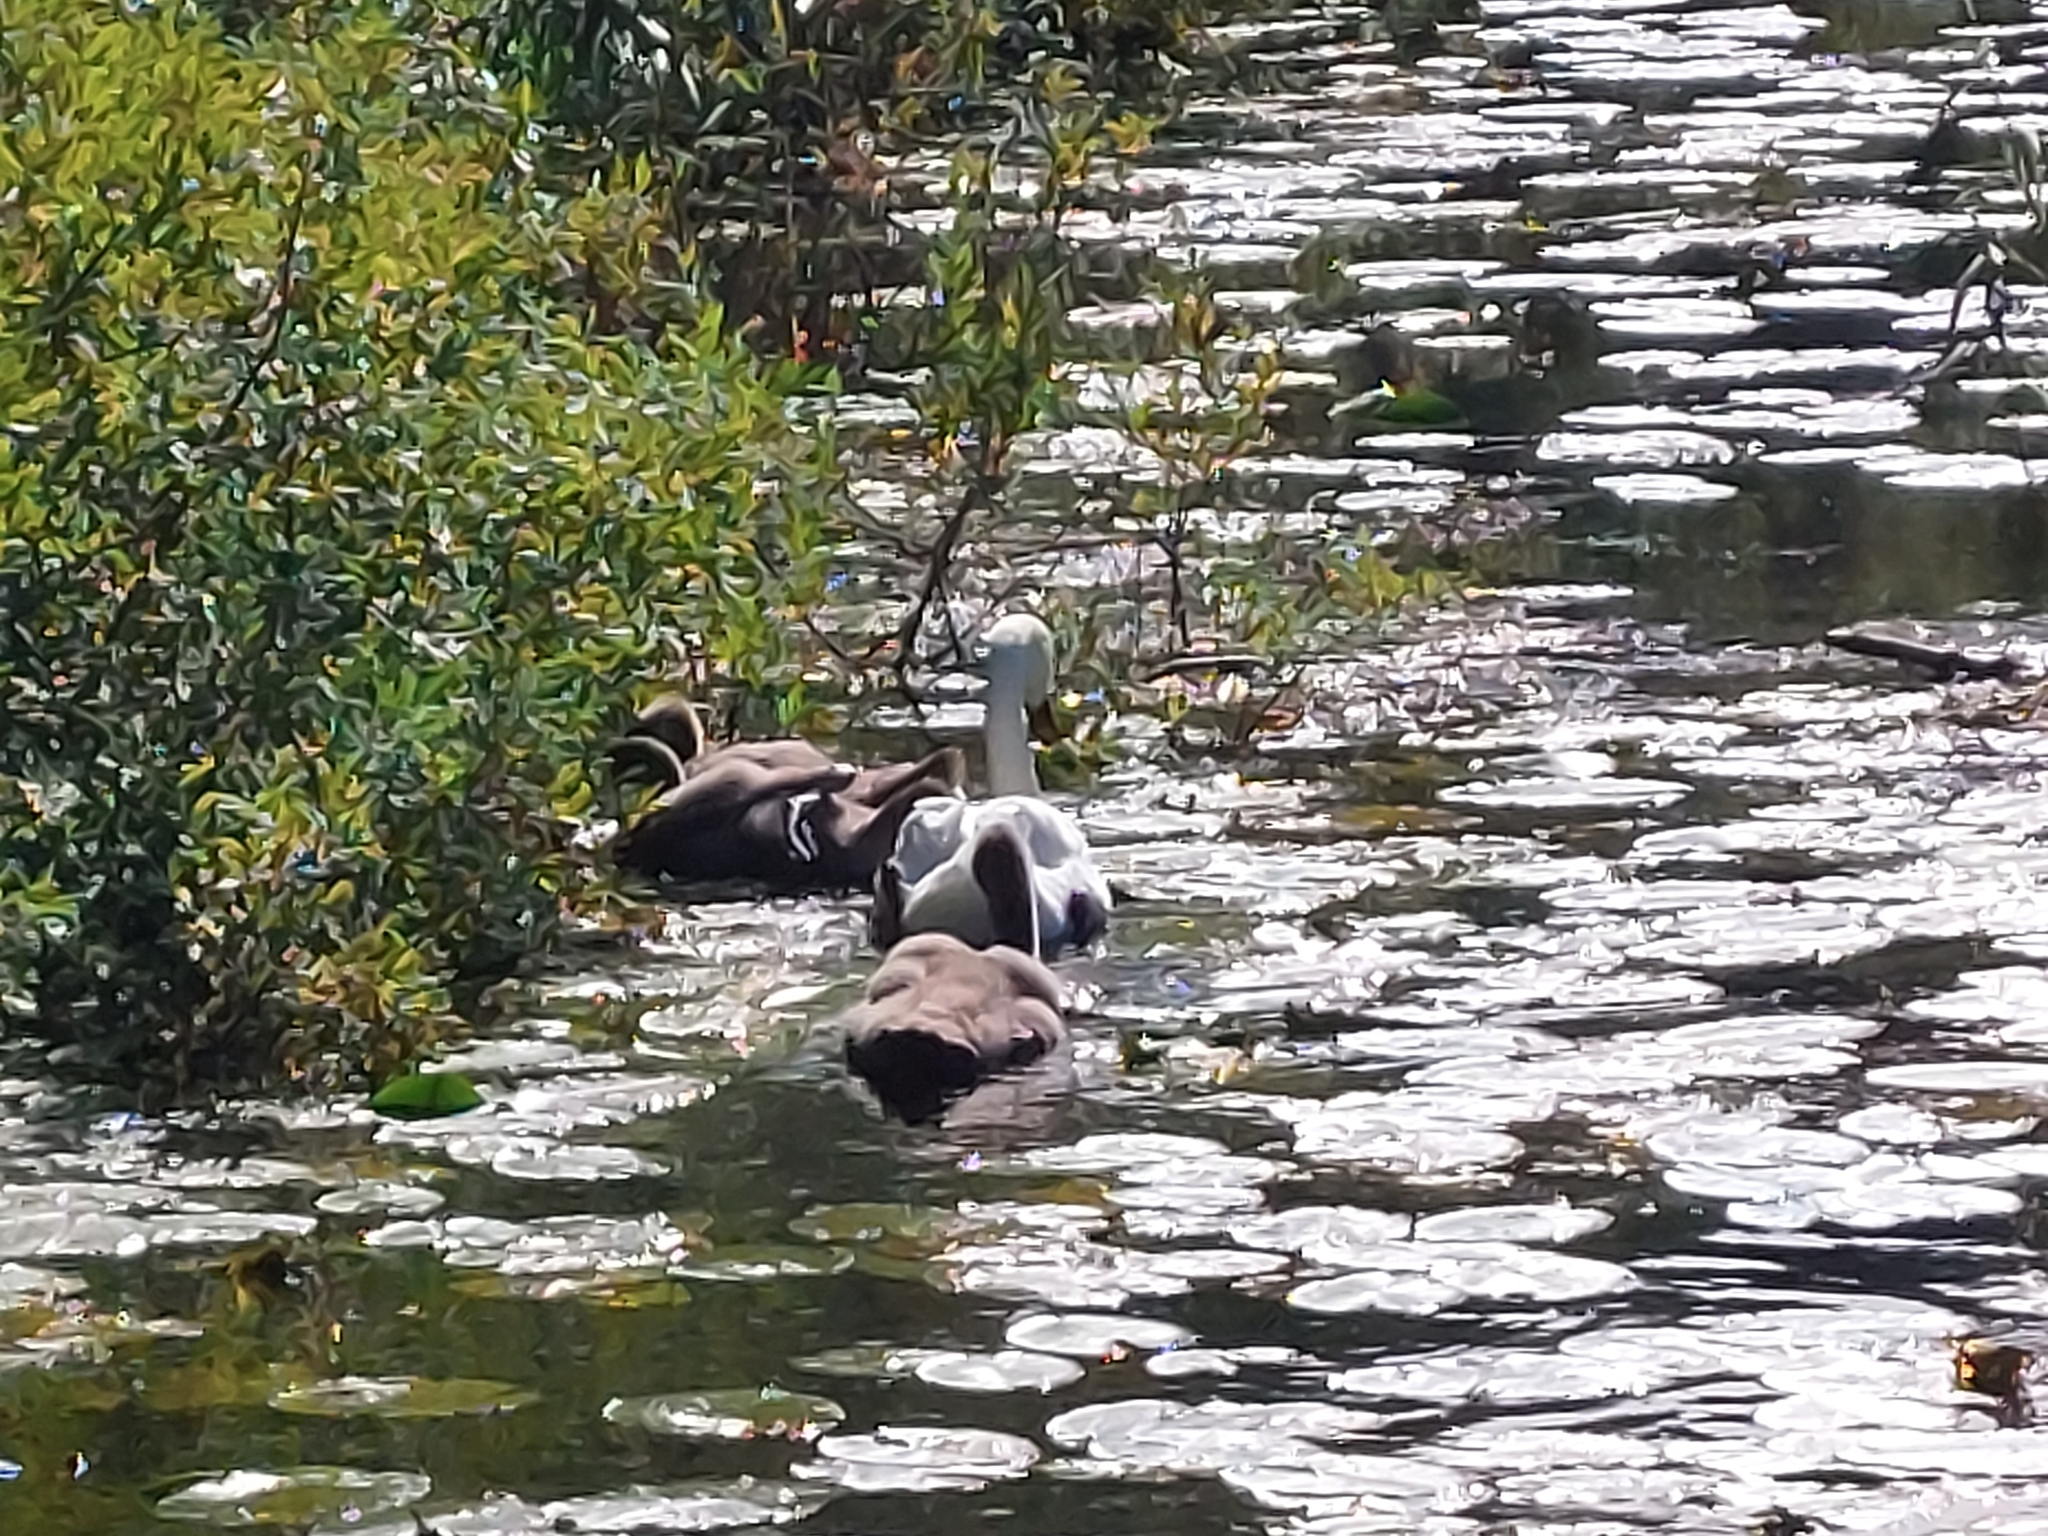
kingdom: Animalia
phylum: Chordata
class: Aves
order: Anseriformes
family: Anatidae
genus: Cygnus
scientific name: Cygnus olor
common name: Mute swan
